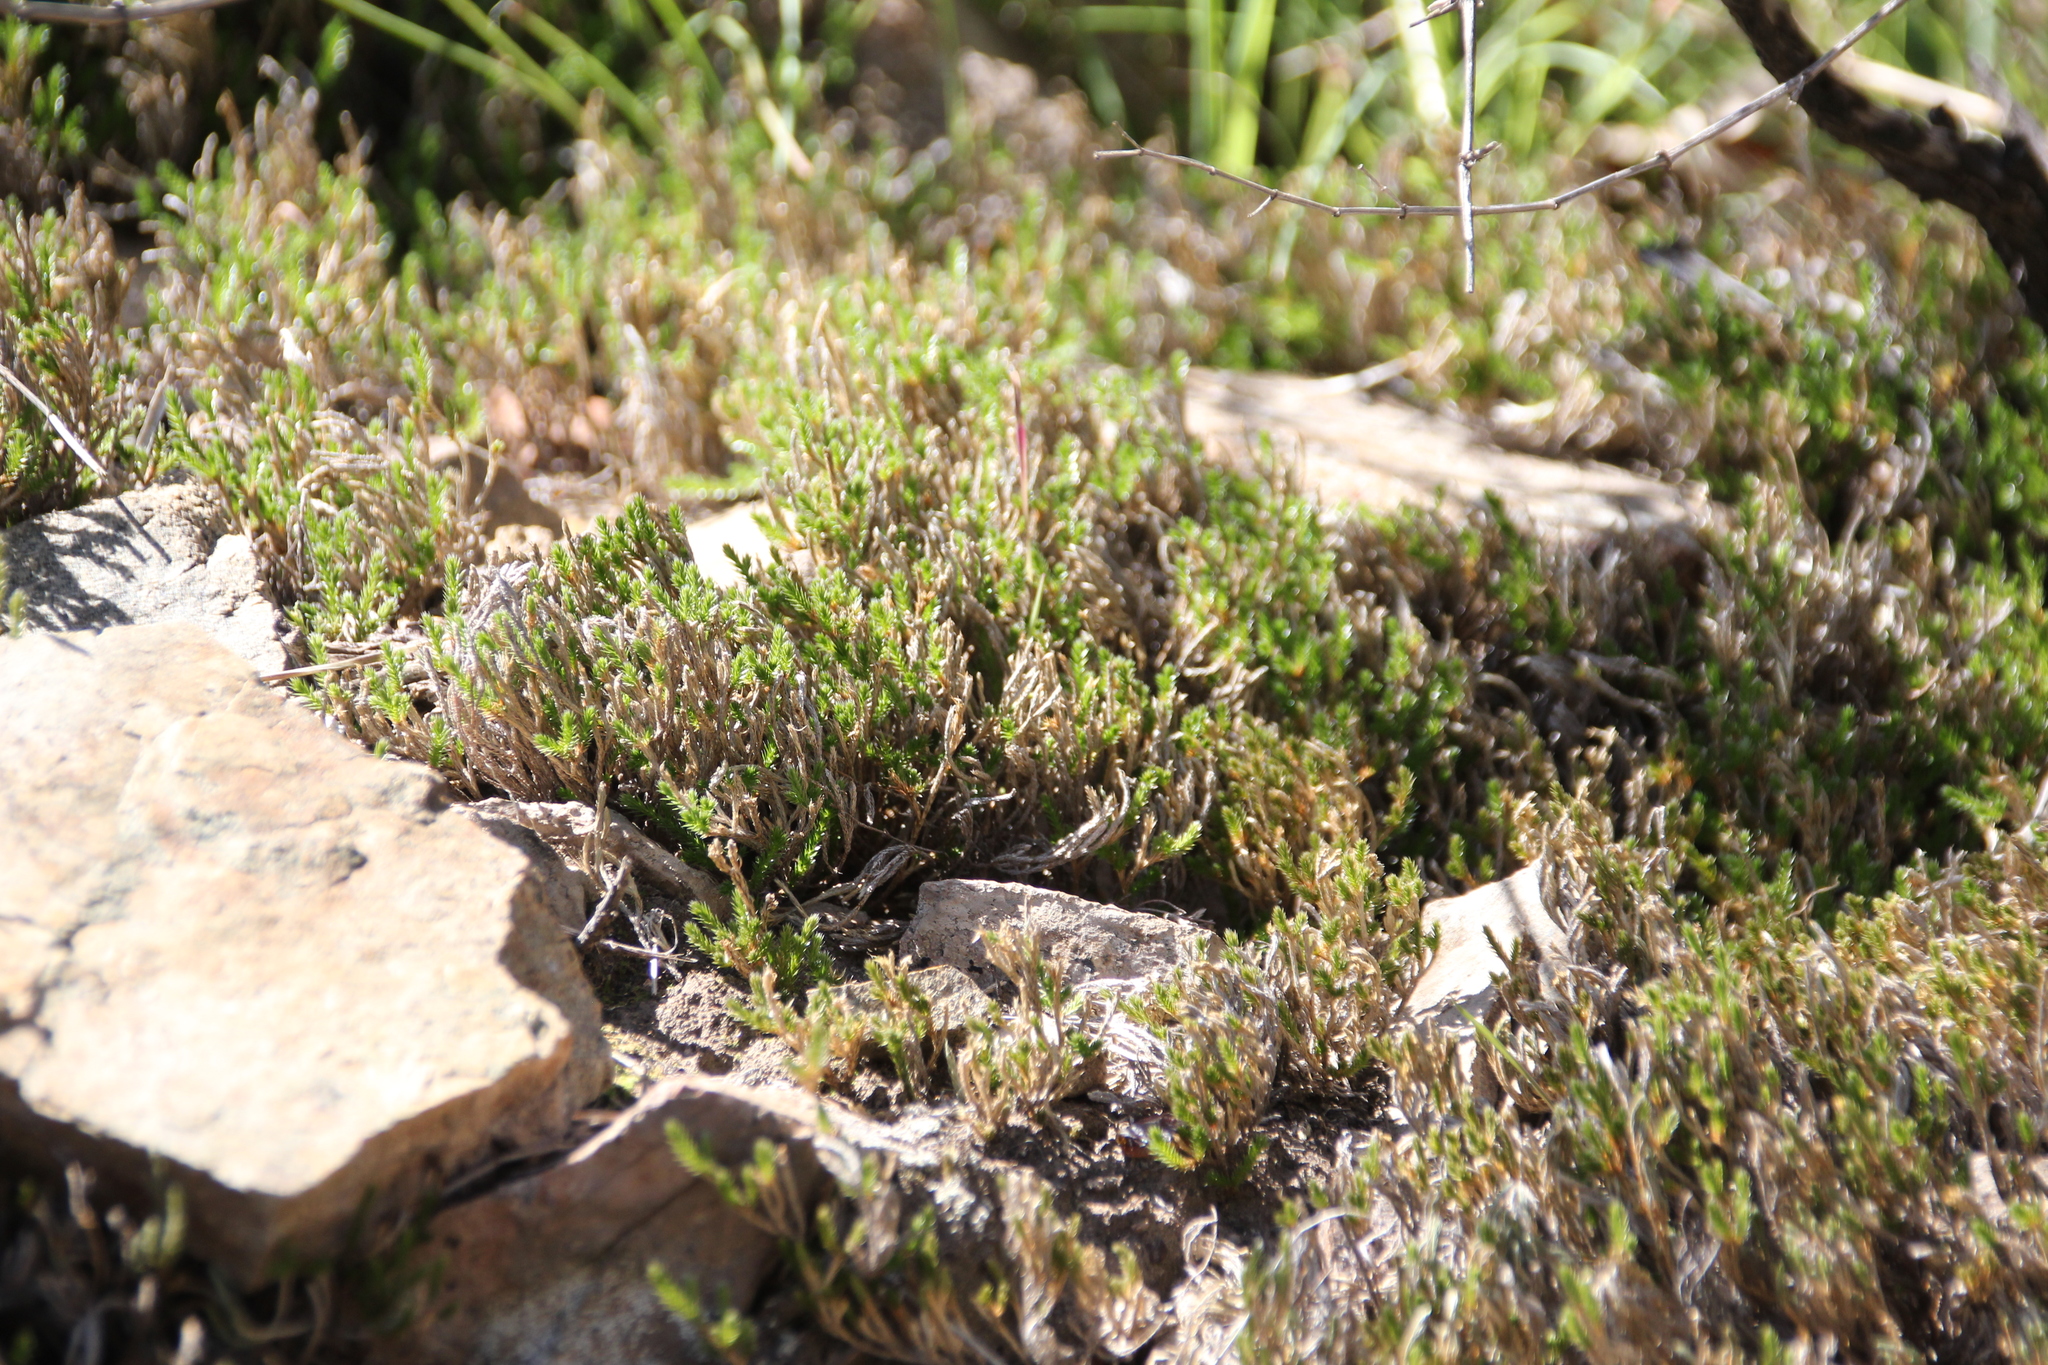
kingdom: Plantae
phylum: Tracheophyta
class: Lycopodiopsida
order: Selaginellales
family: Selaginellaceae
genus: Selaginella
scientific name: Selaginella bigelovii
